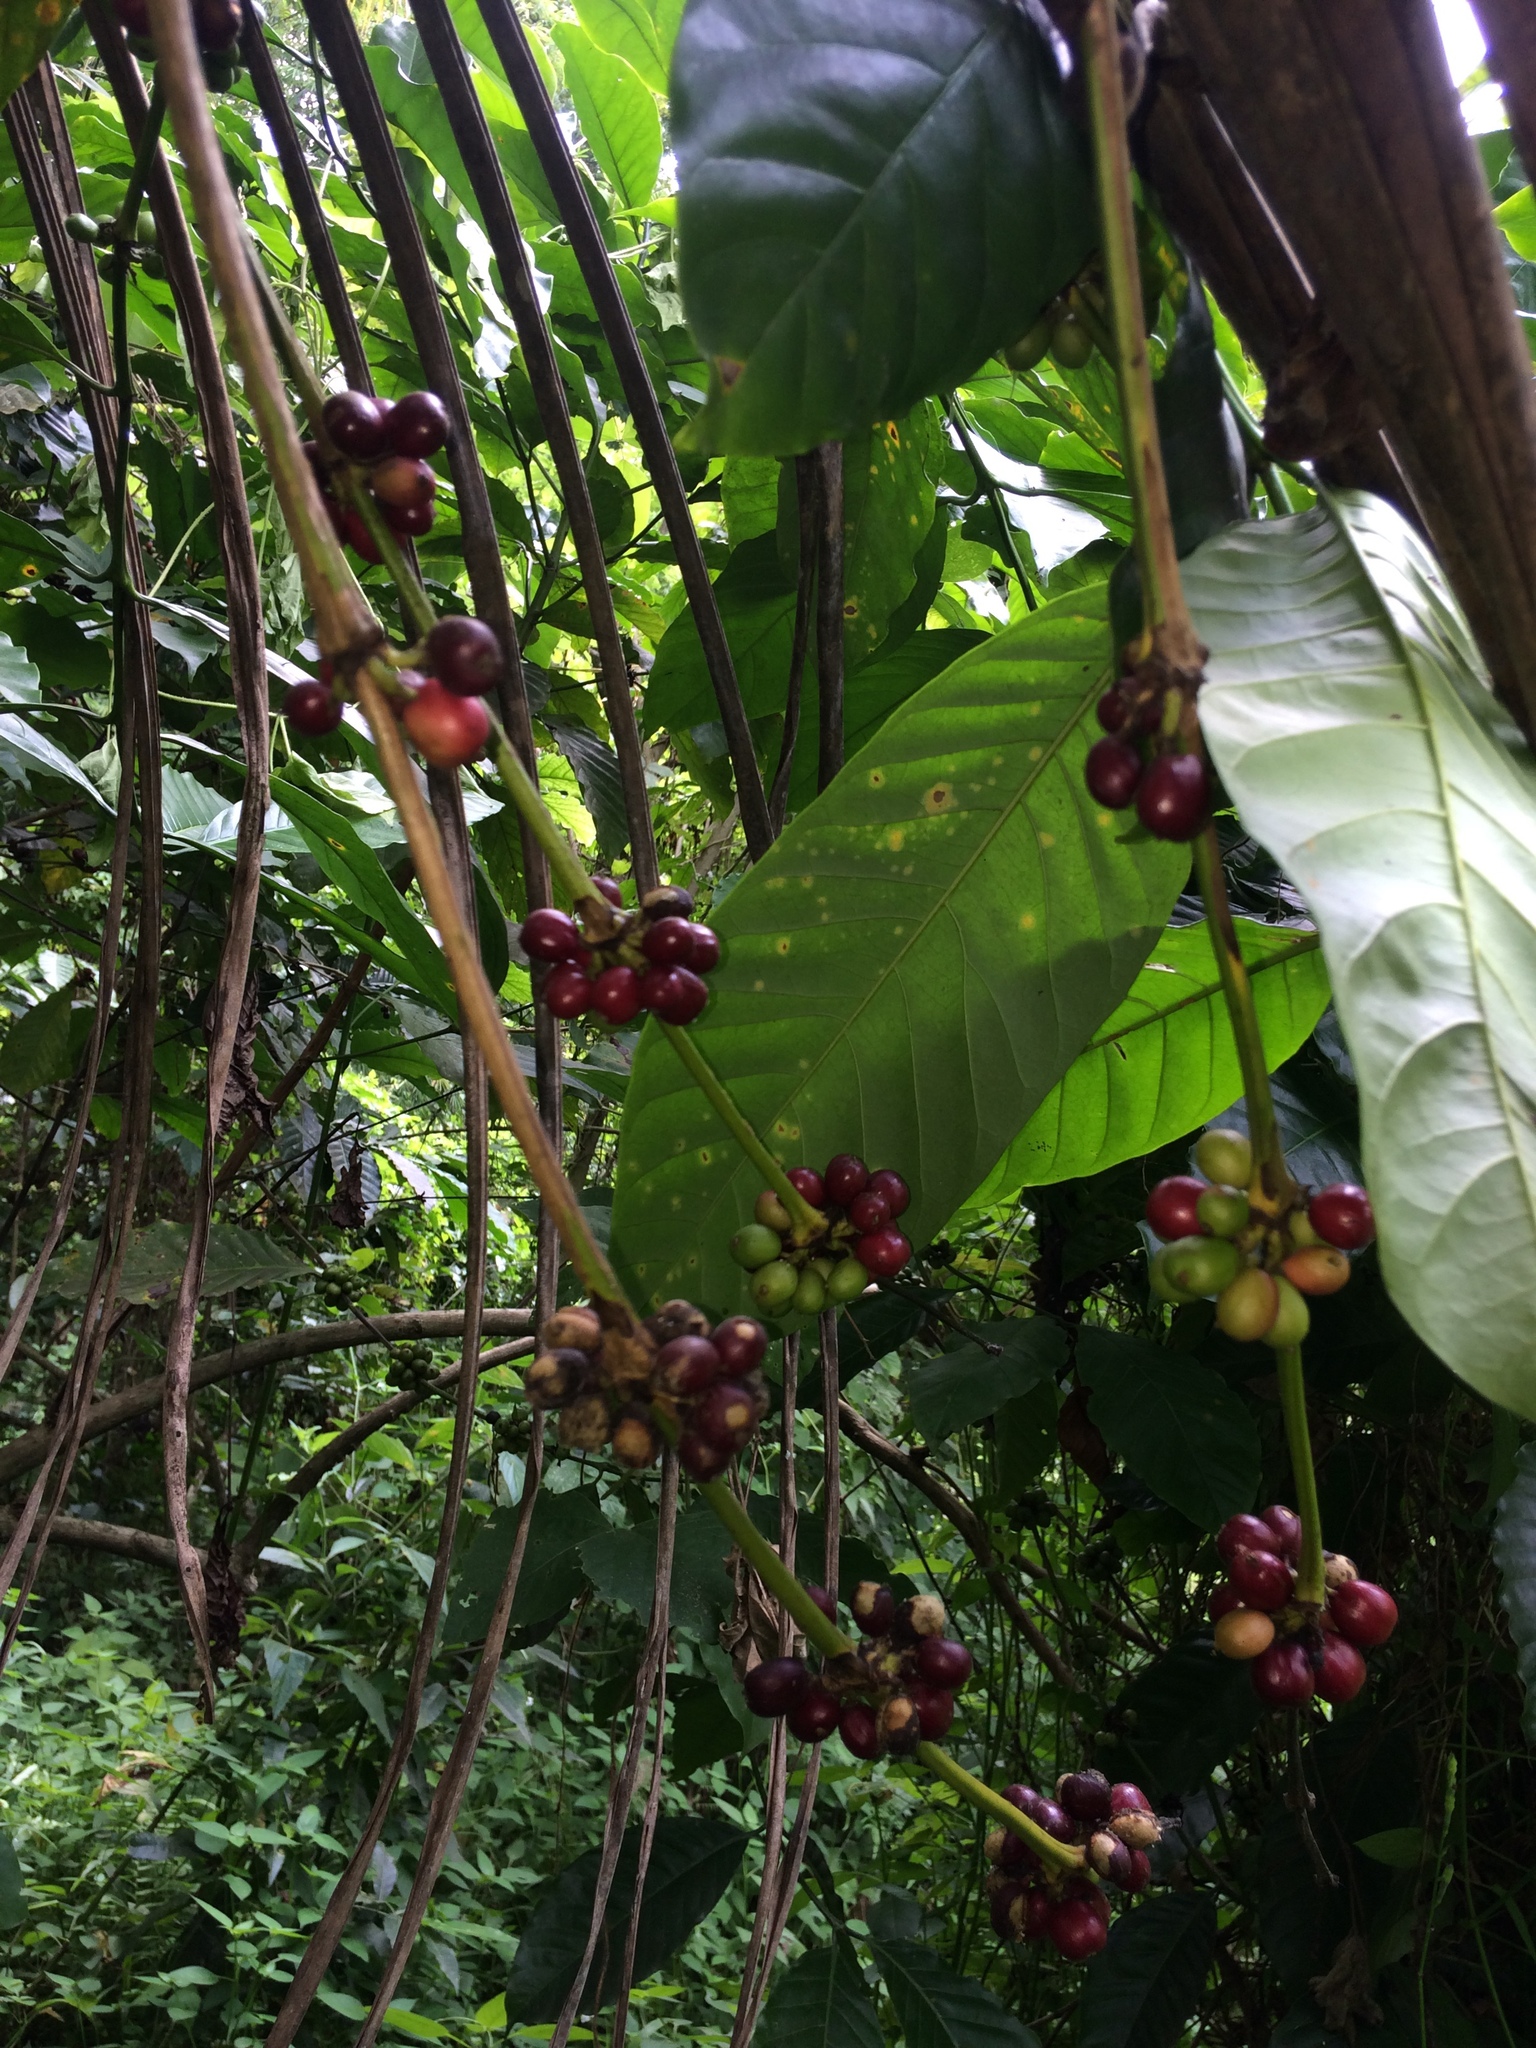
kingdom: Plantae
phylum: Tracheophyta
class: Magnoliopsida
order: Gentianales
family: Rubiaceae
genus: Coffea
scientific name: Coffea arabica
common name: Coffee
